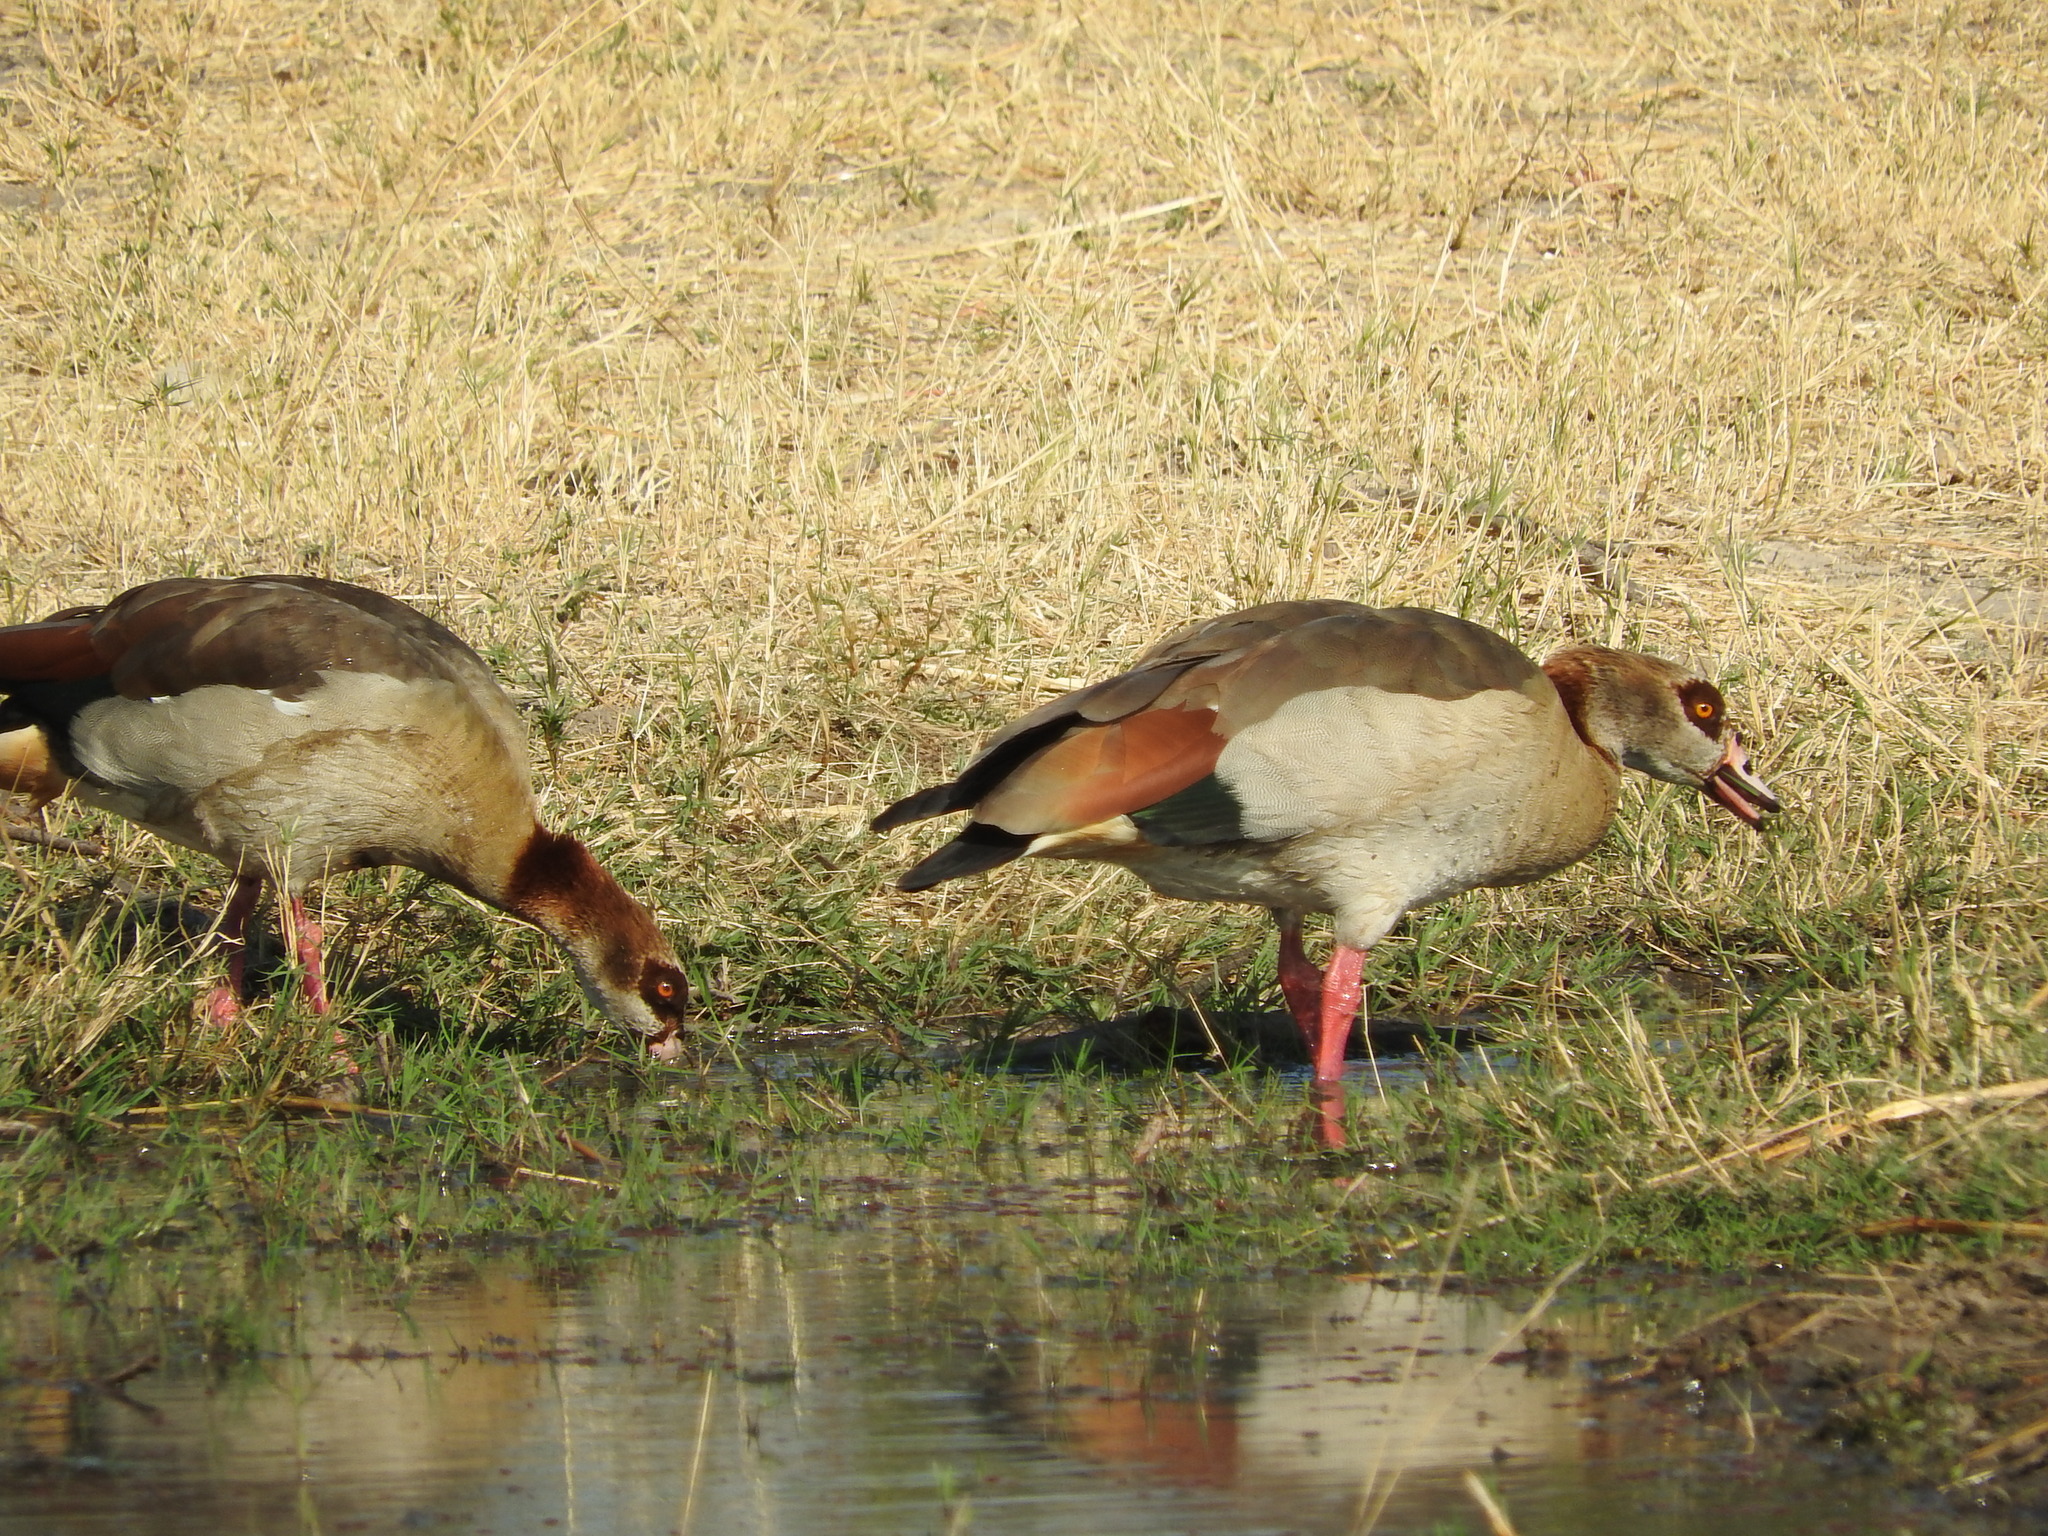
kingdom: Animalia
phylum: Chordata
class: Aves
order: Anseriformes
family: Anatidae
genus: Alopochen
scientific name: Alopochen aegyptiaca
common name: Egyptian goose
